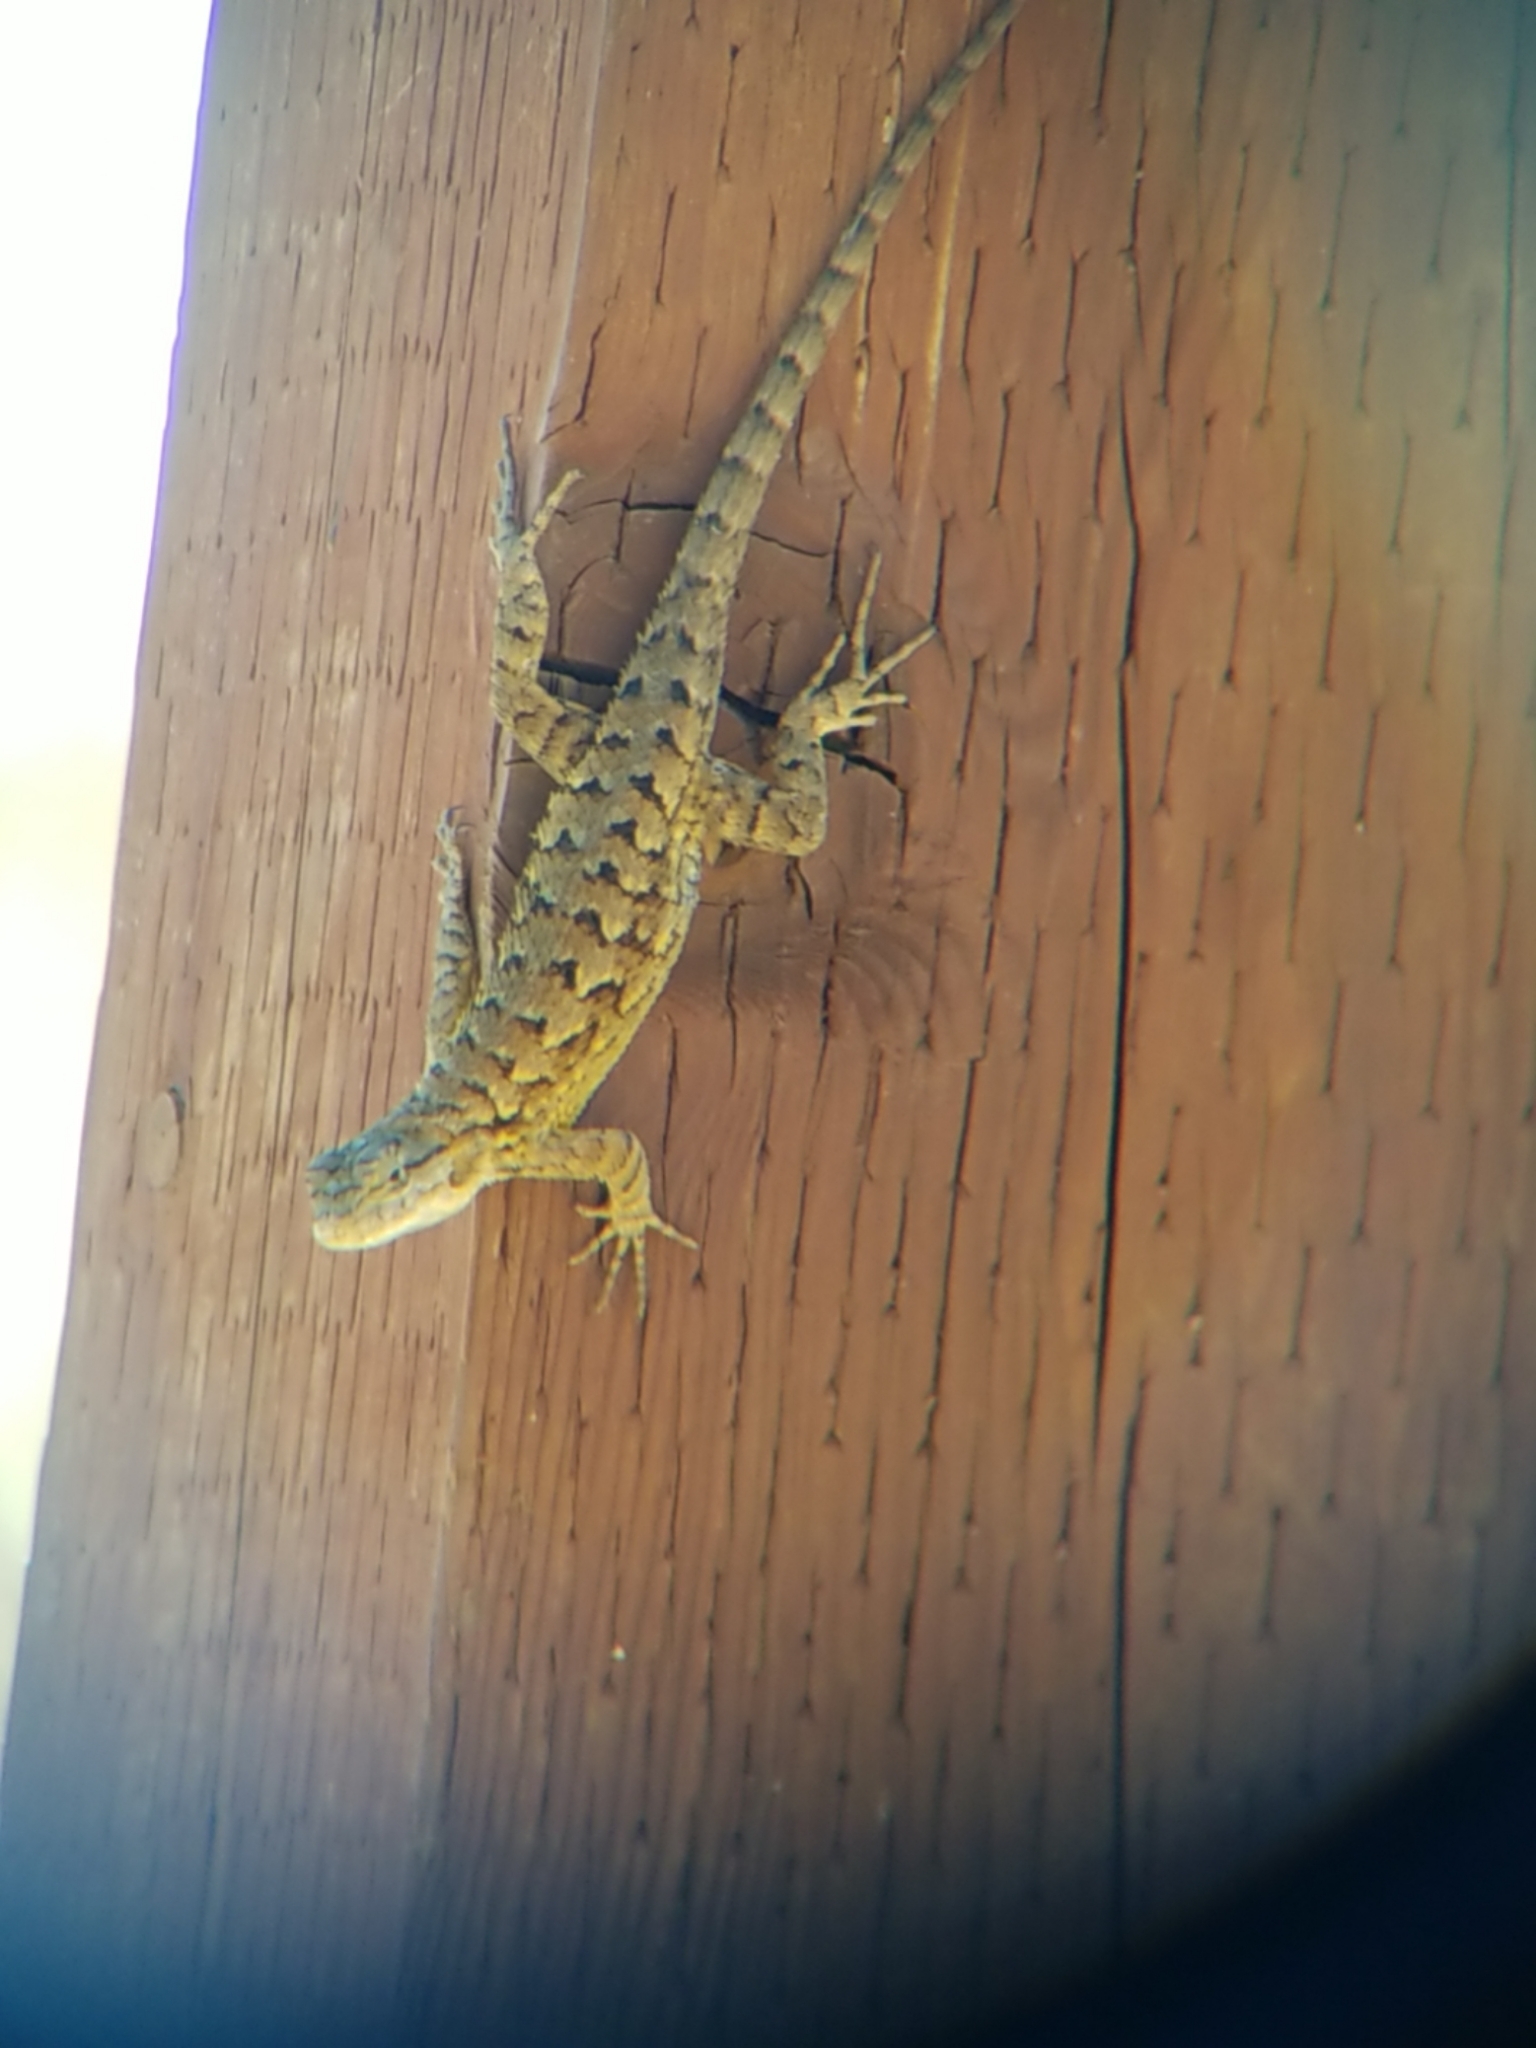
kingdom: Animalia
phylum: Chordata
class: Squamata
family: Phrynosomatidae
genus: Sceloporus
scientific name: Sceloporus occidentalis
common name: Western fence lizard
